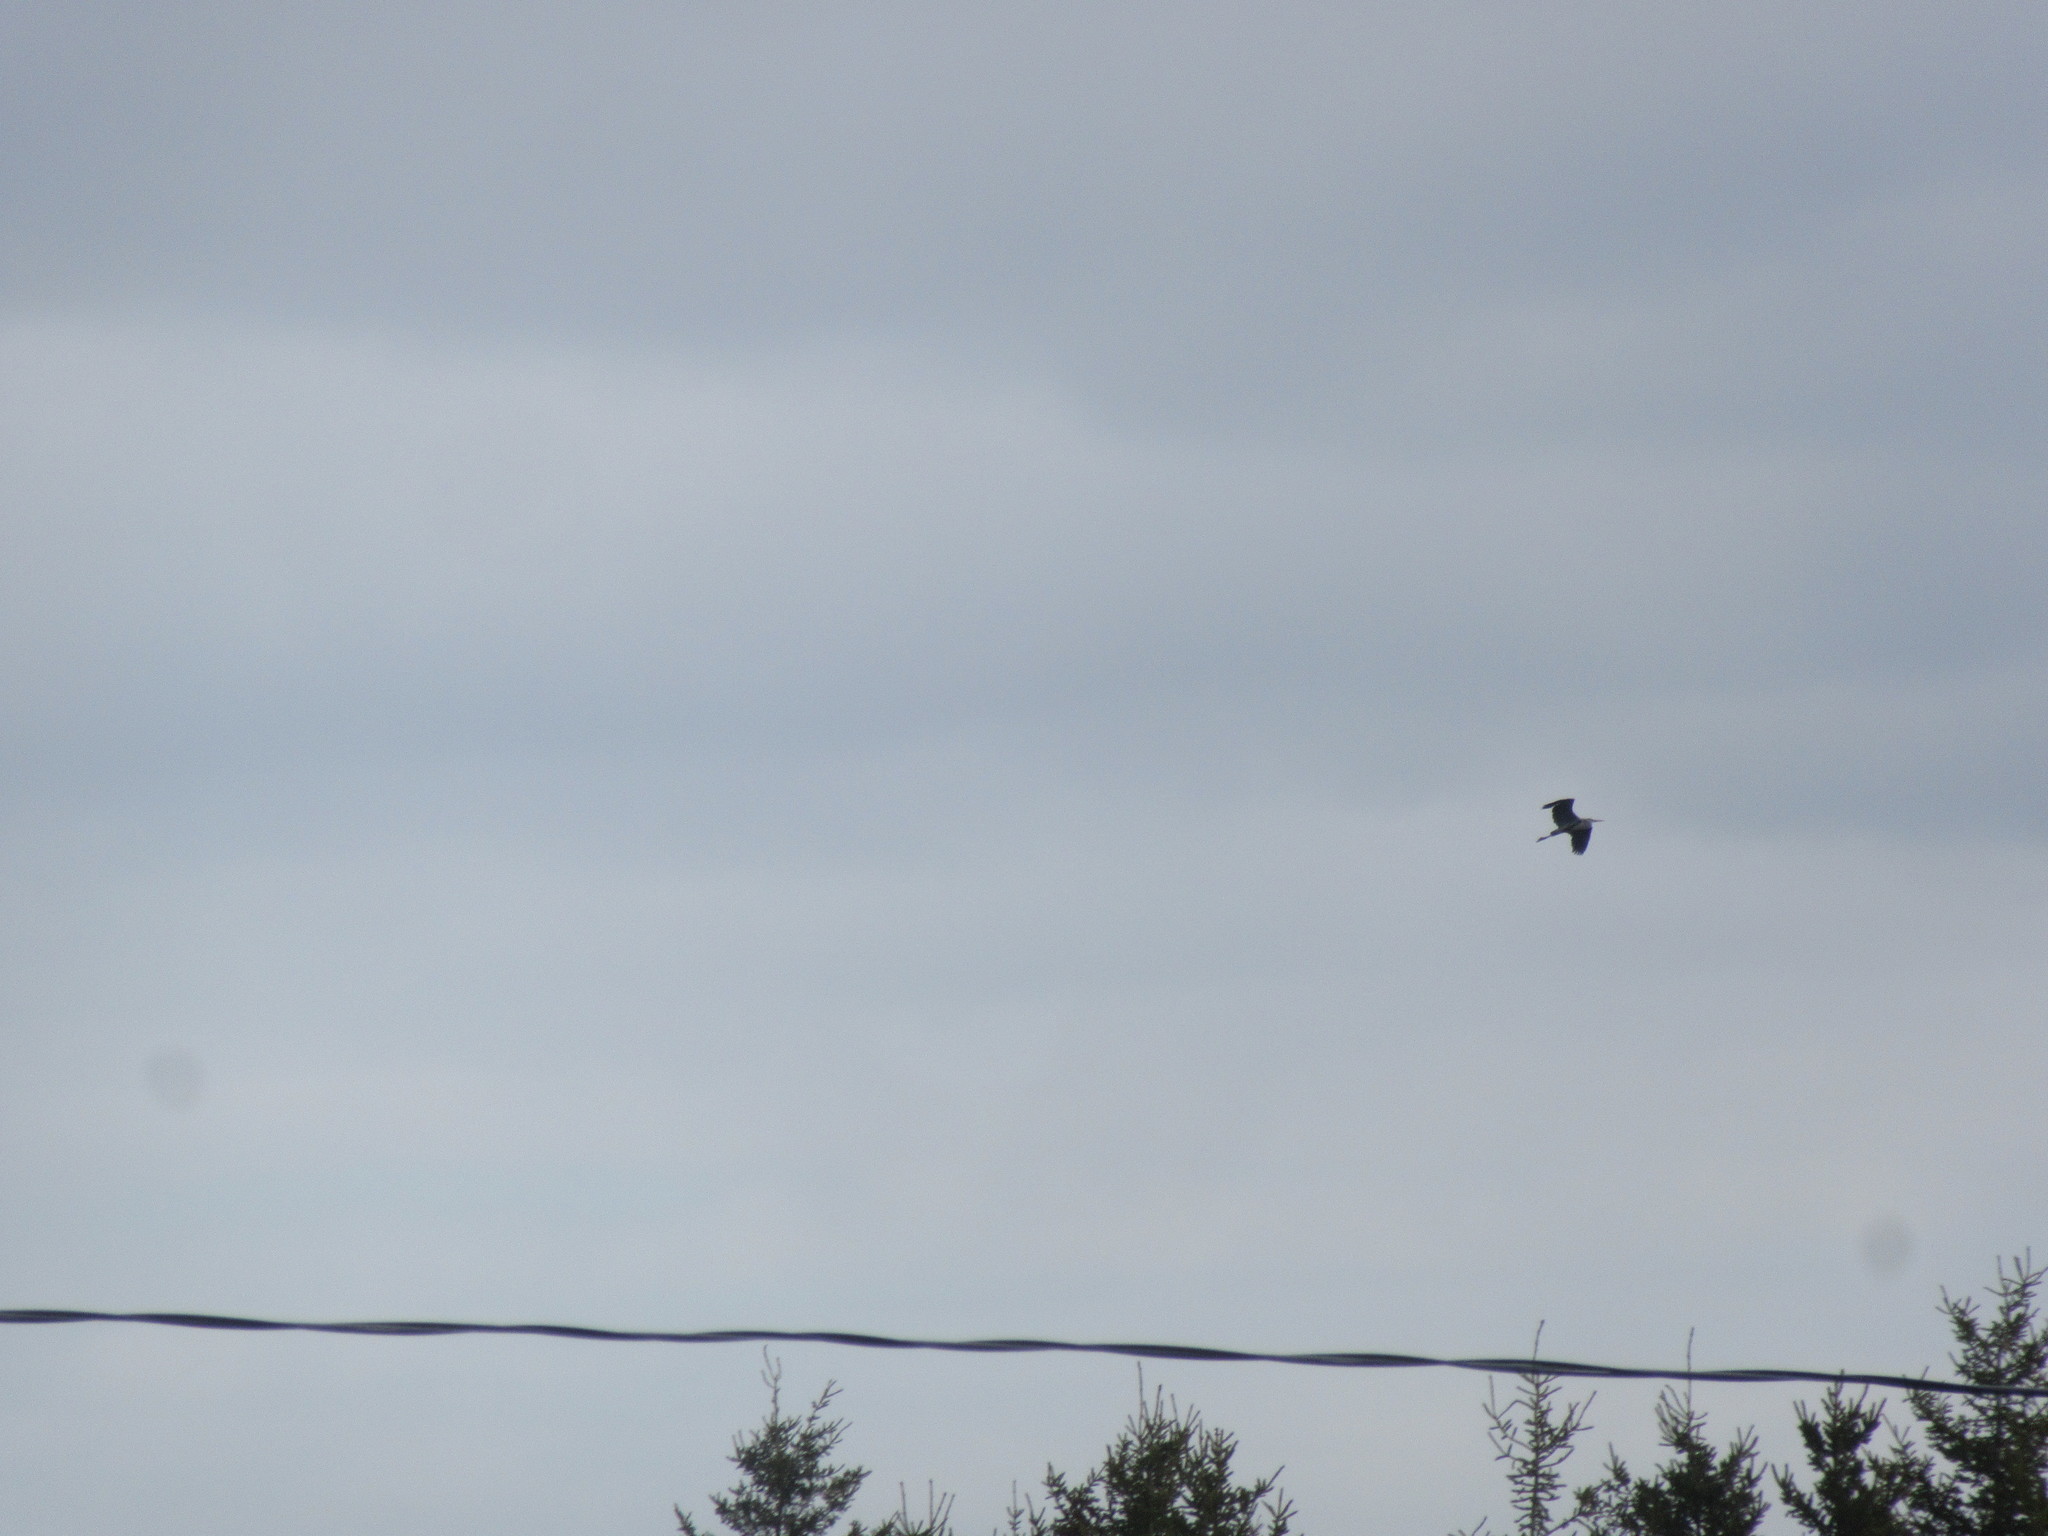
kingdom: Animalia
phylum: Chordata
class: Aves
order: Pelecaniformes
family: Ardeidae
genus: Ardea
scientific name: Ardea herodias
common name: Great blue heron
